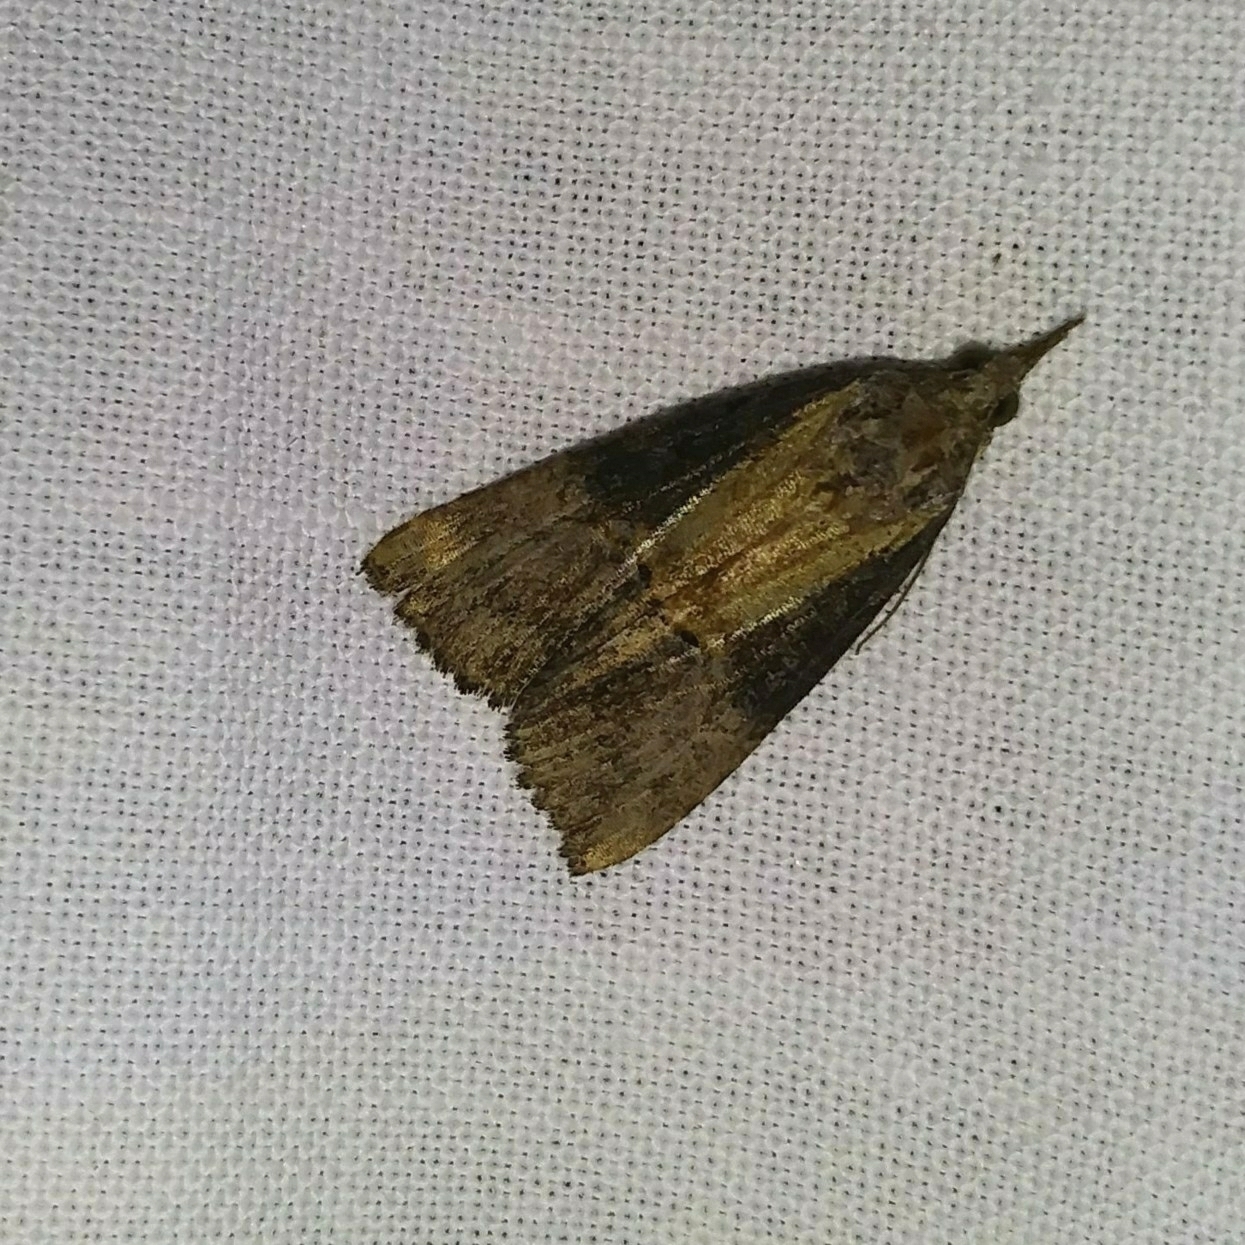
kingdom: Animalia
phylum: Arthropoda
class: Insecta
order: Lepidoptera
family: Erebidae
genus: Hypena
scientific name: Hypena scabra
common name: Green cloverworm
